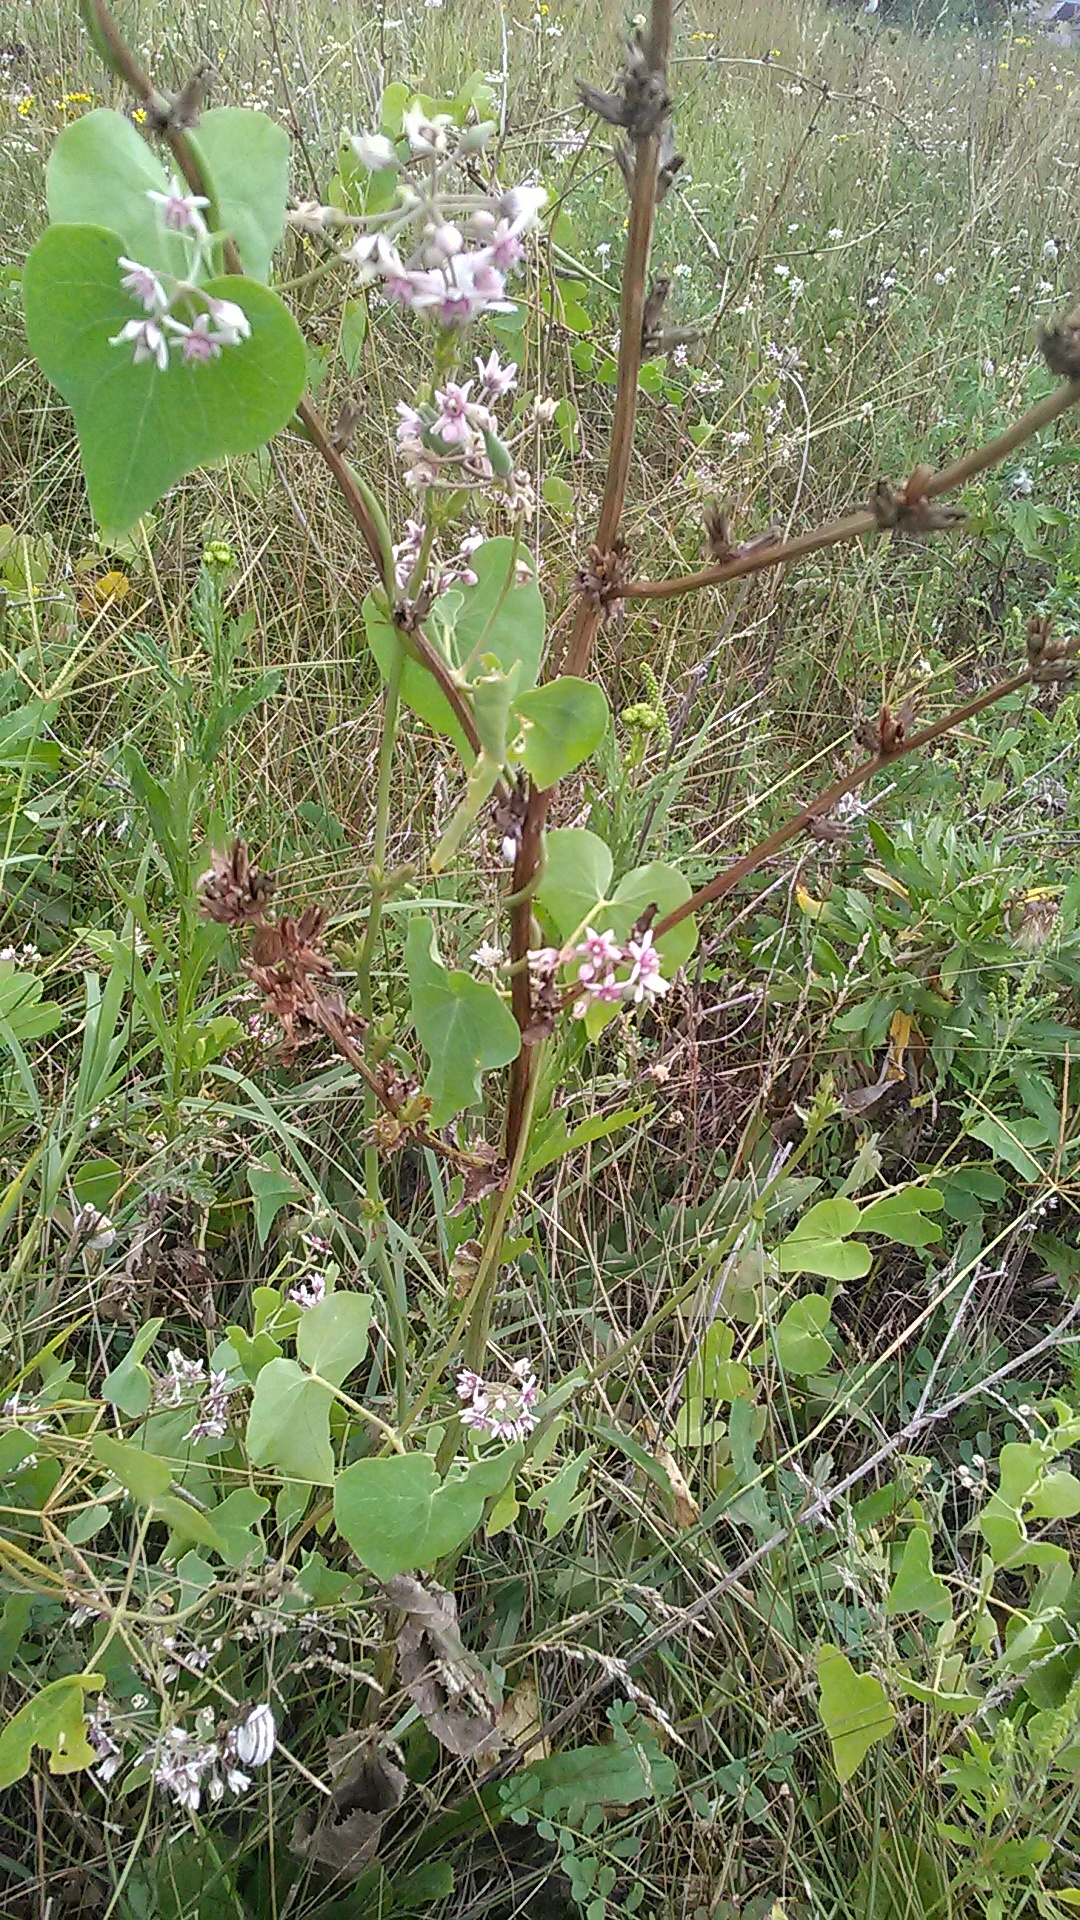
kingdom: Plantae
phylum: Tracheophyta
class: Magnoliopsida
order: Gentianales
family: Apocynaceae
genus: Cynanchum
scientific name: Cynanchum acutum
